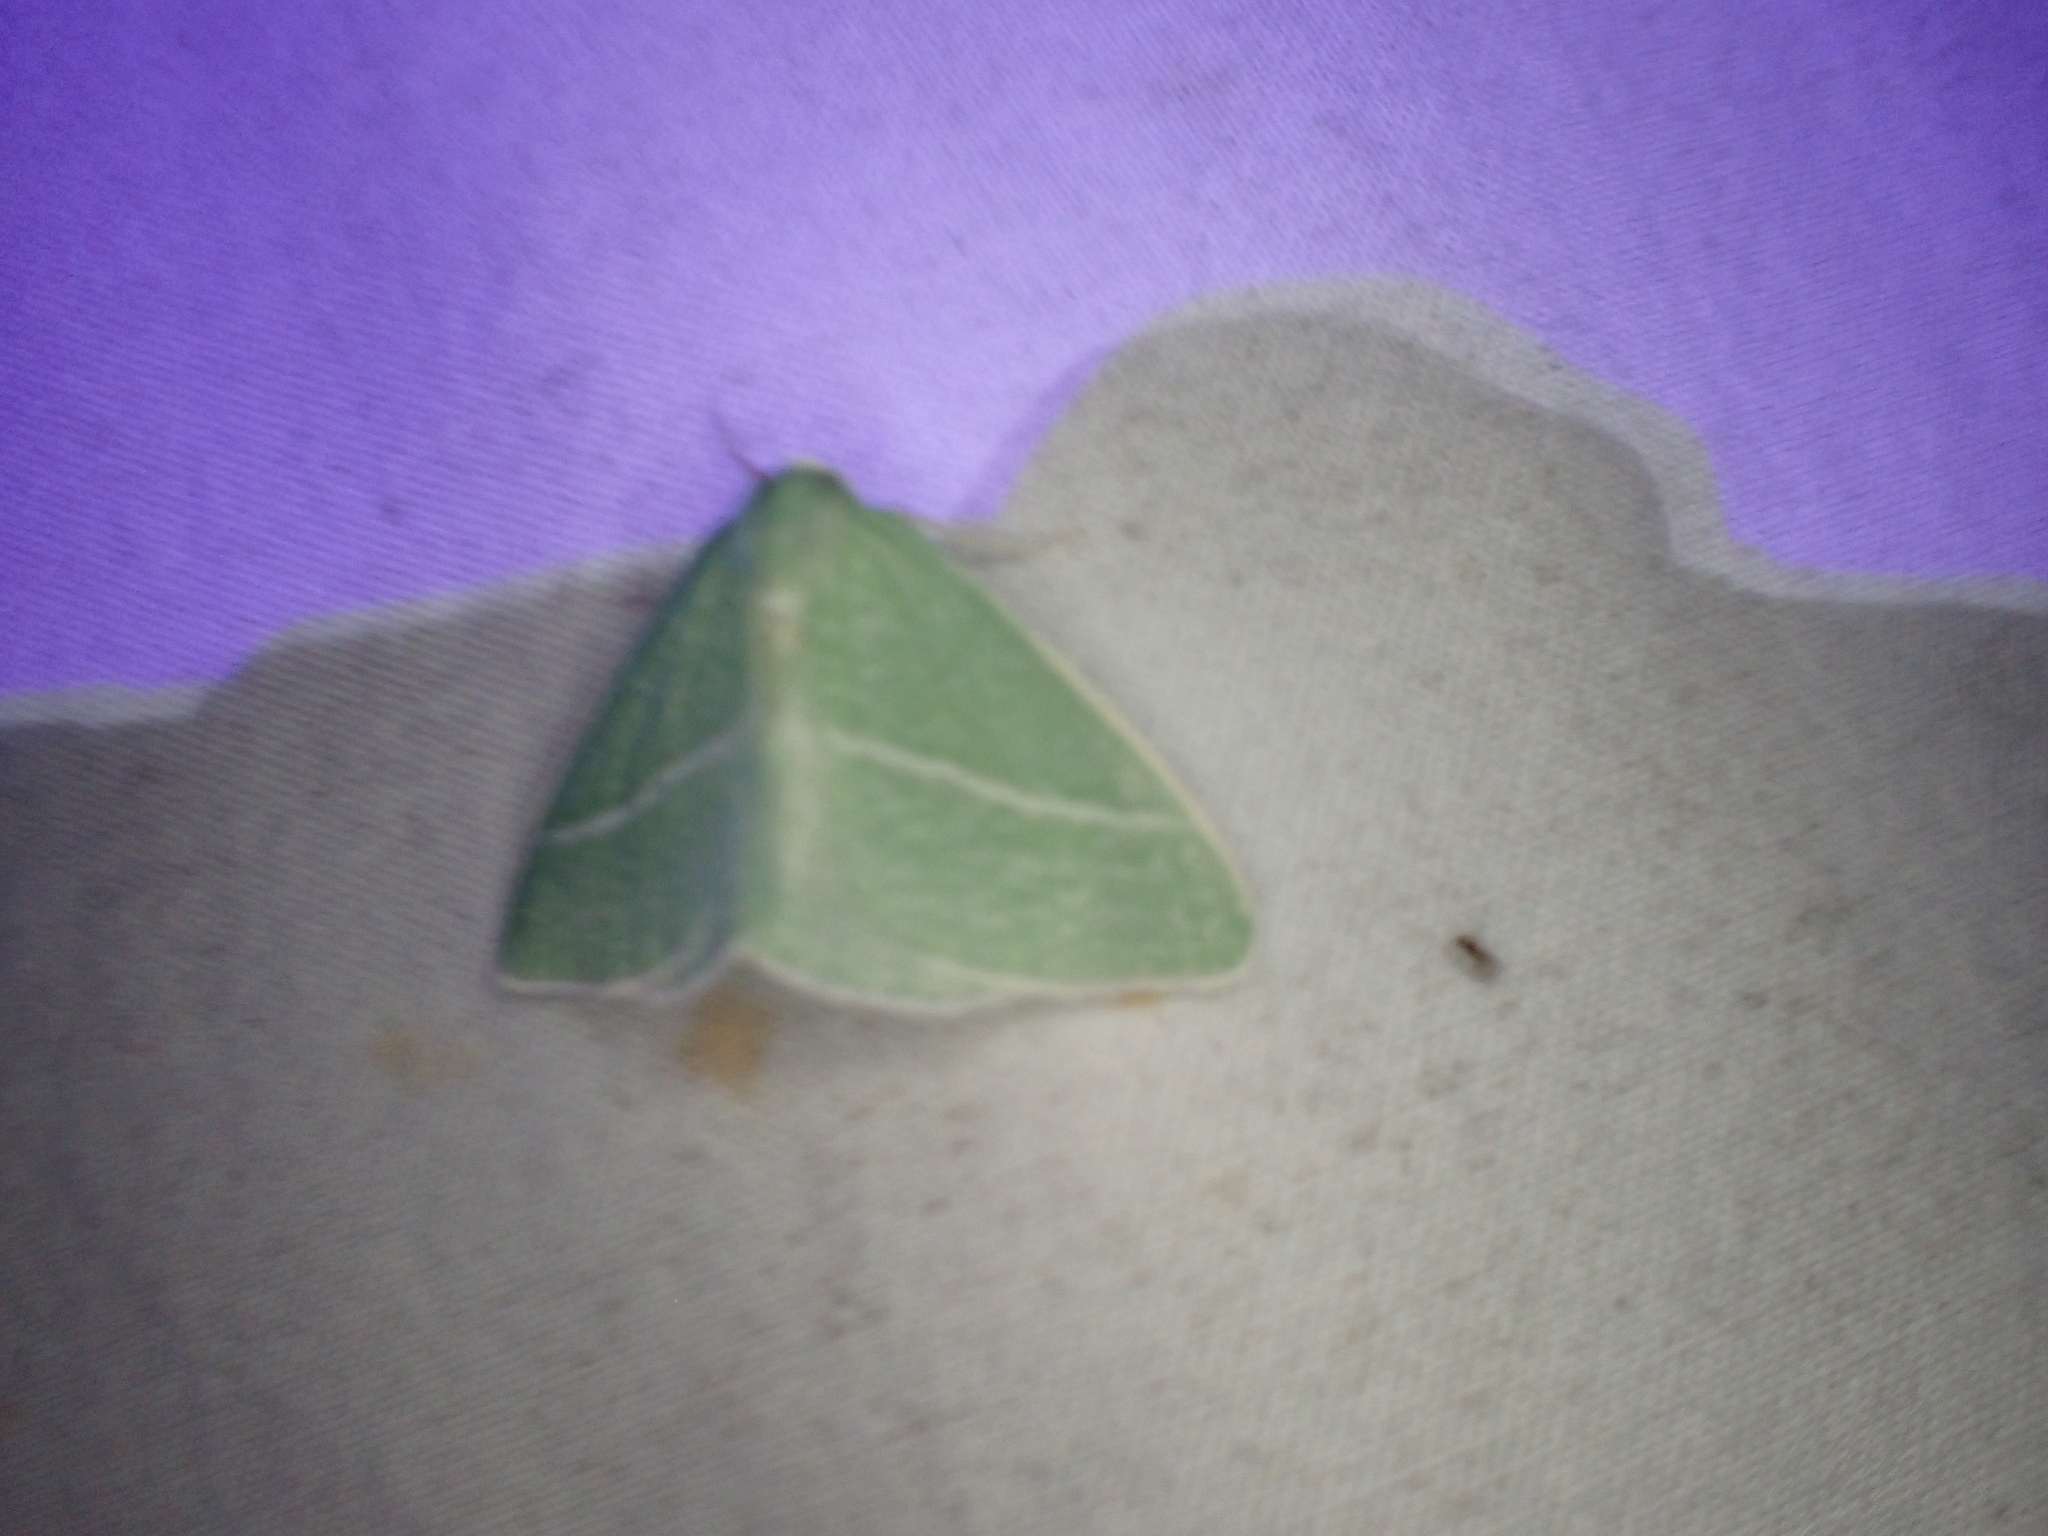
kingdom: Animalia
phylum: Arthropoda
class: Insecta
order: Lepidoptera
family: Geometridae
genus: Chlorosea
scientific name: Chlorosea banksaria
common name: Bank's emerald moth
